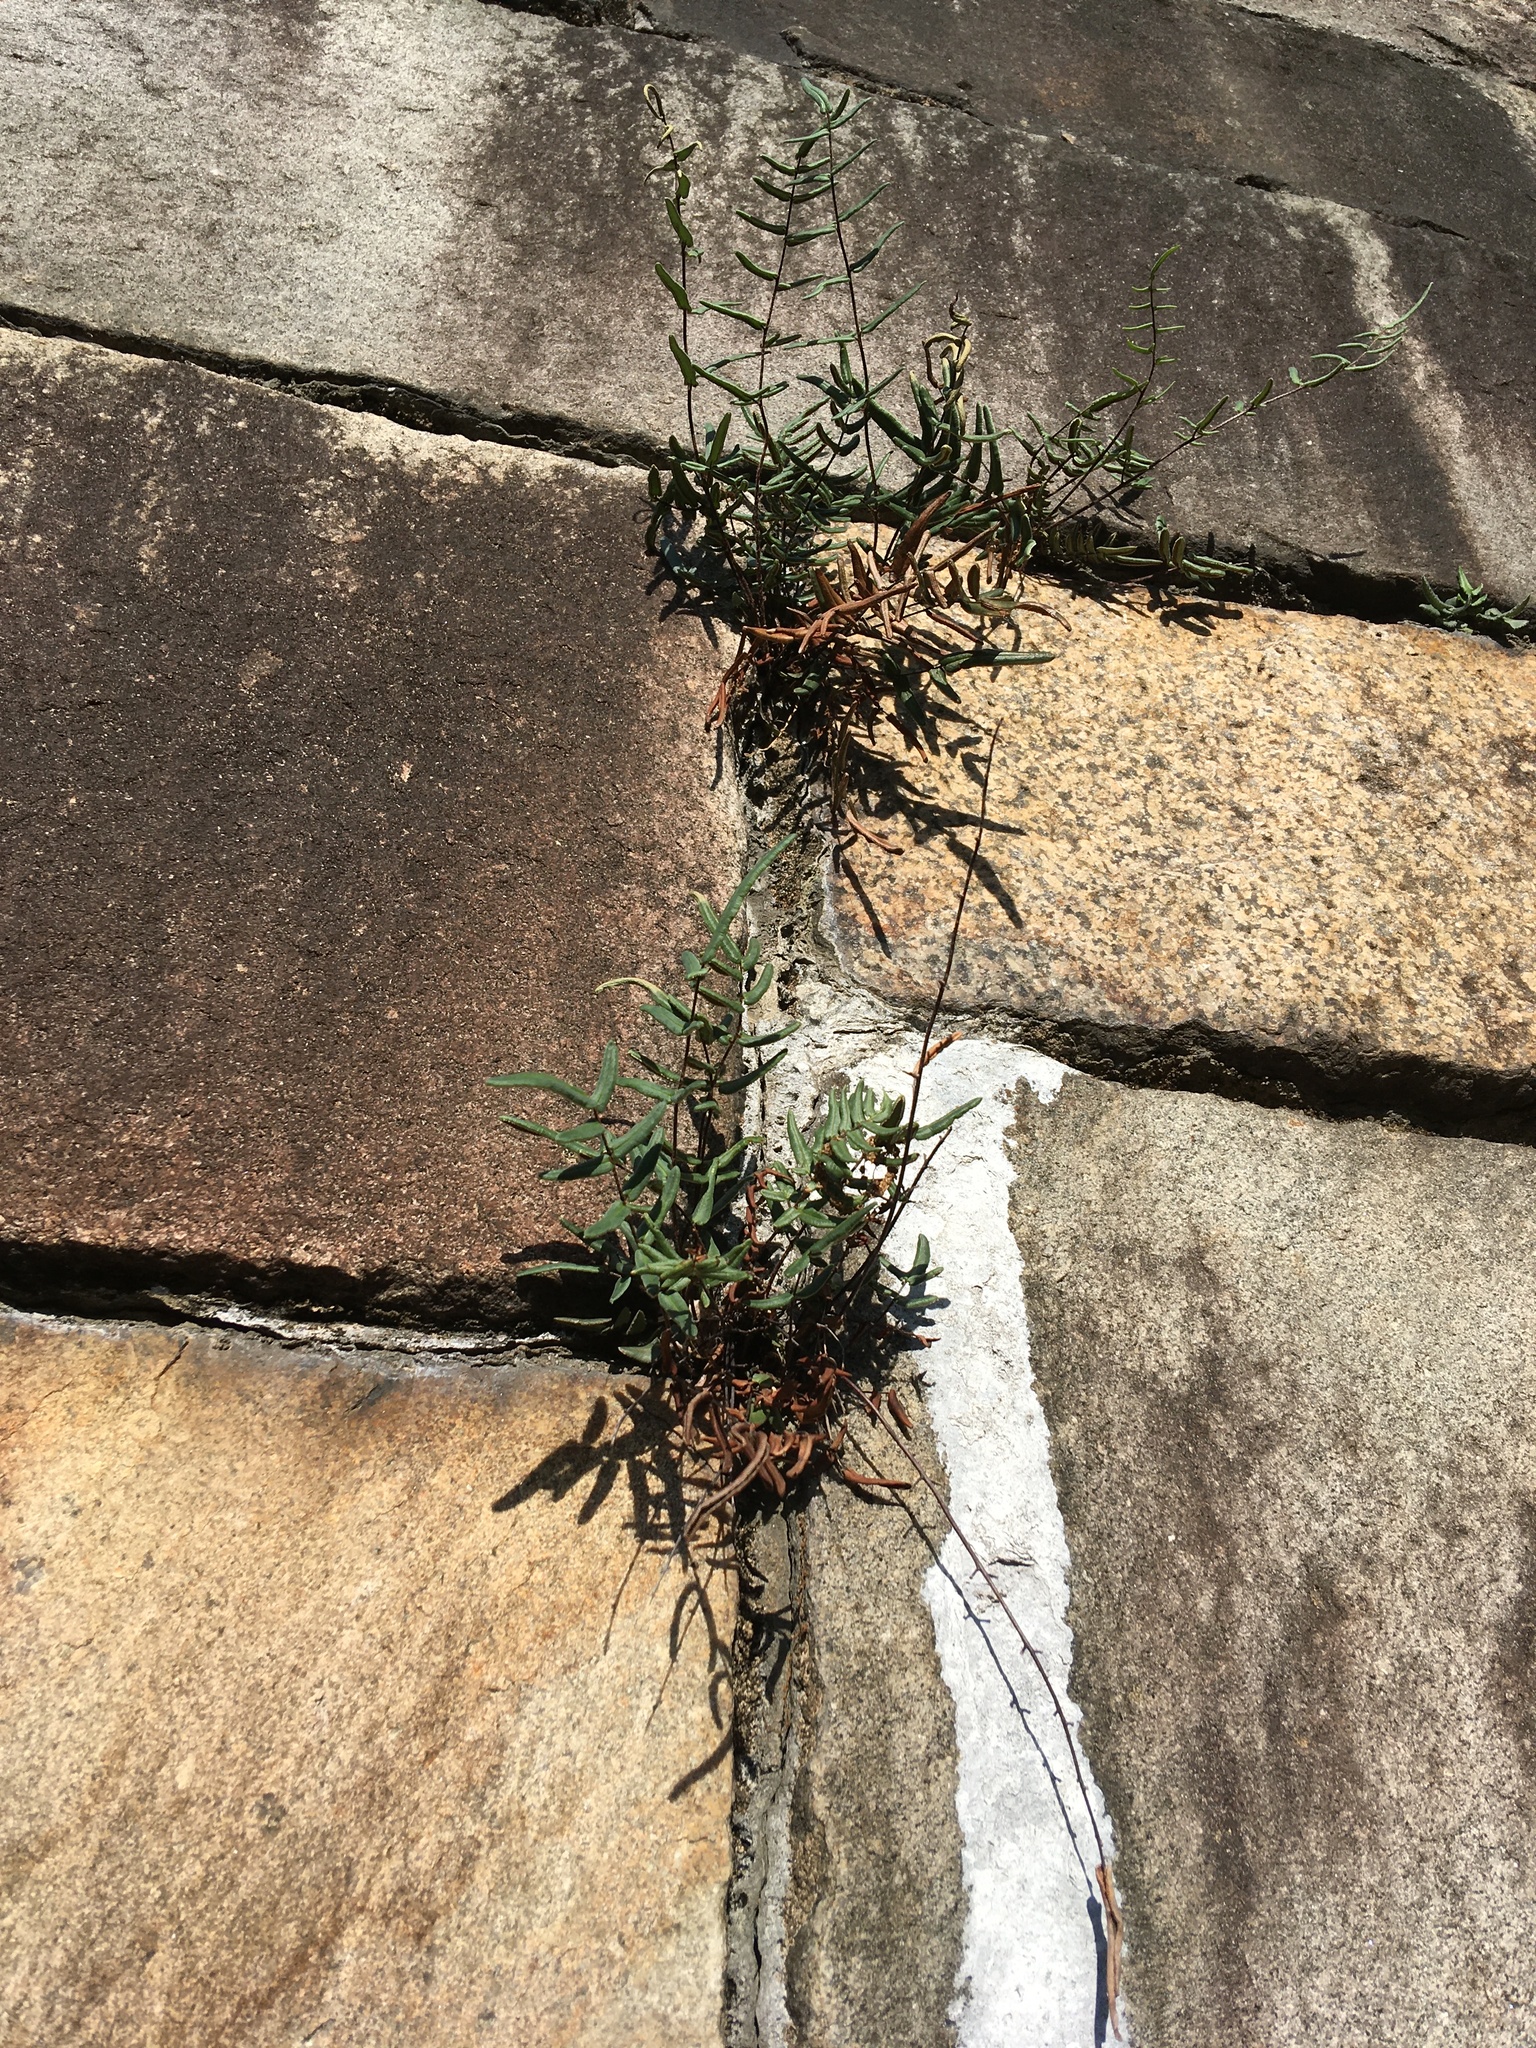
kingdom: Plantae
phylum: Tracheophyta
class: Polypodiopsida
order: Polypodiales
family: Pteridaceae
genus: Pellaea
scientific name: Pellaea atropurpurea
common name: Hairy cliffbrake
